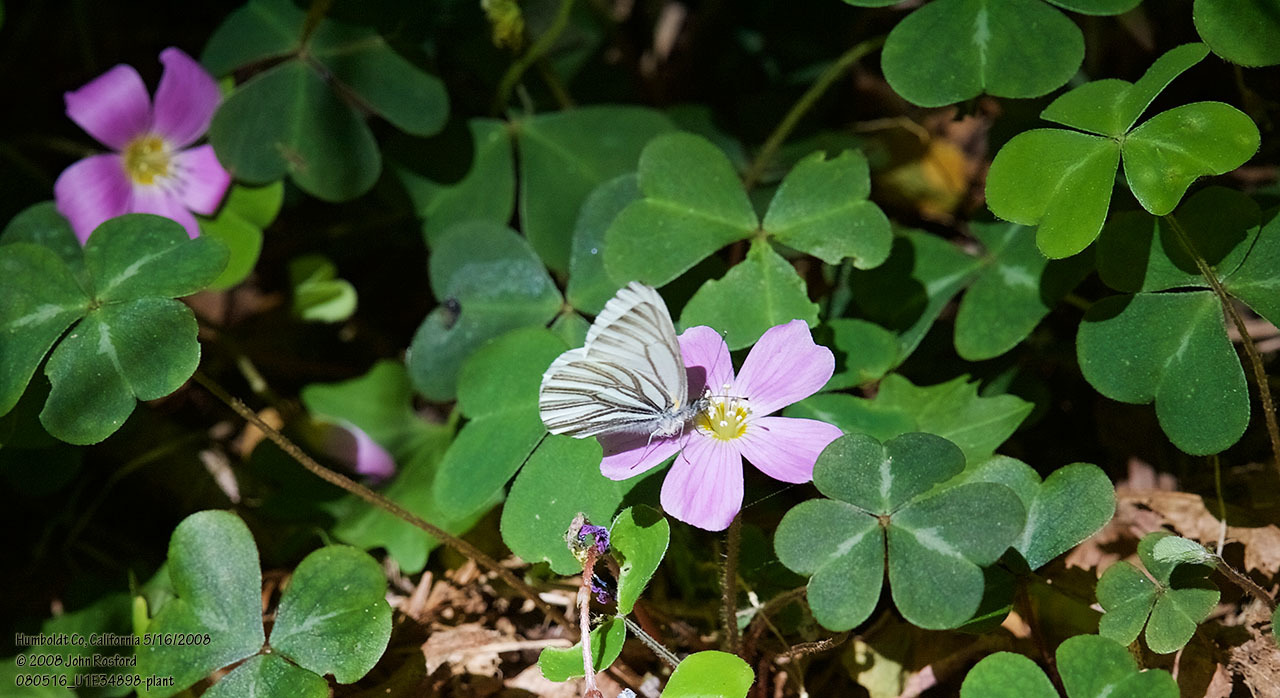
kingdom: Plantae
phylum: Tracheophyta
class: Magnoliopsida
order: Oxalidales
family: Oxalidaceae
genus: Oxalis
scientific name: Oxalis oregana
